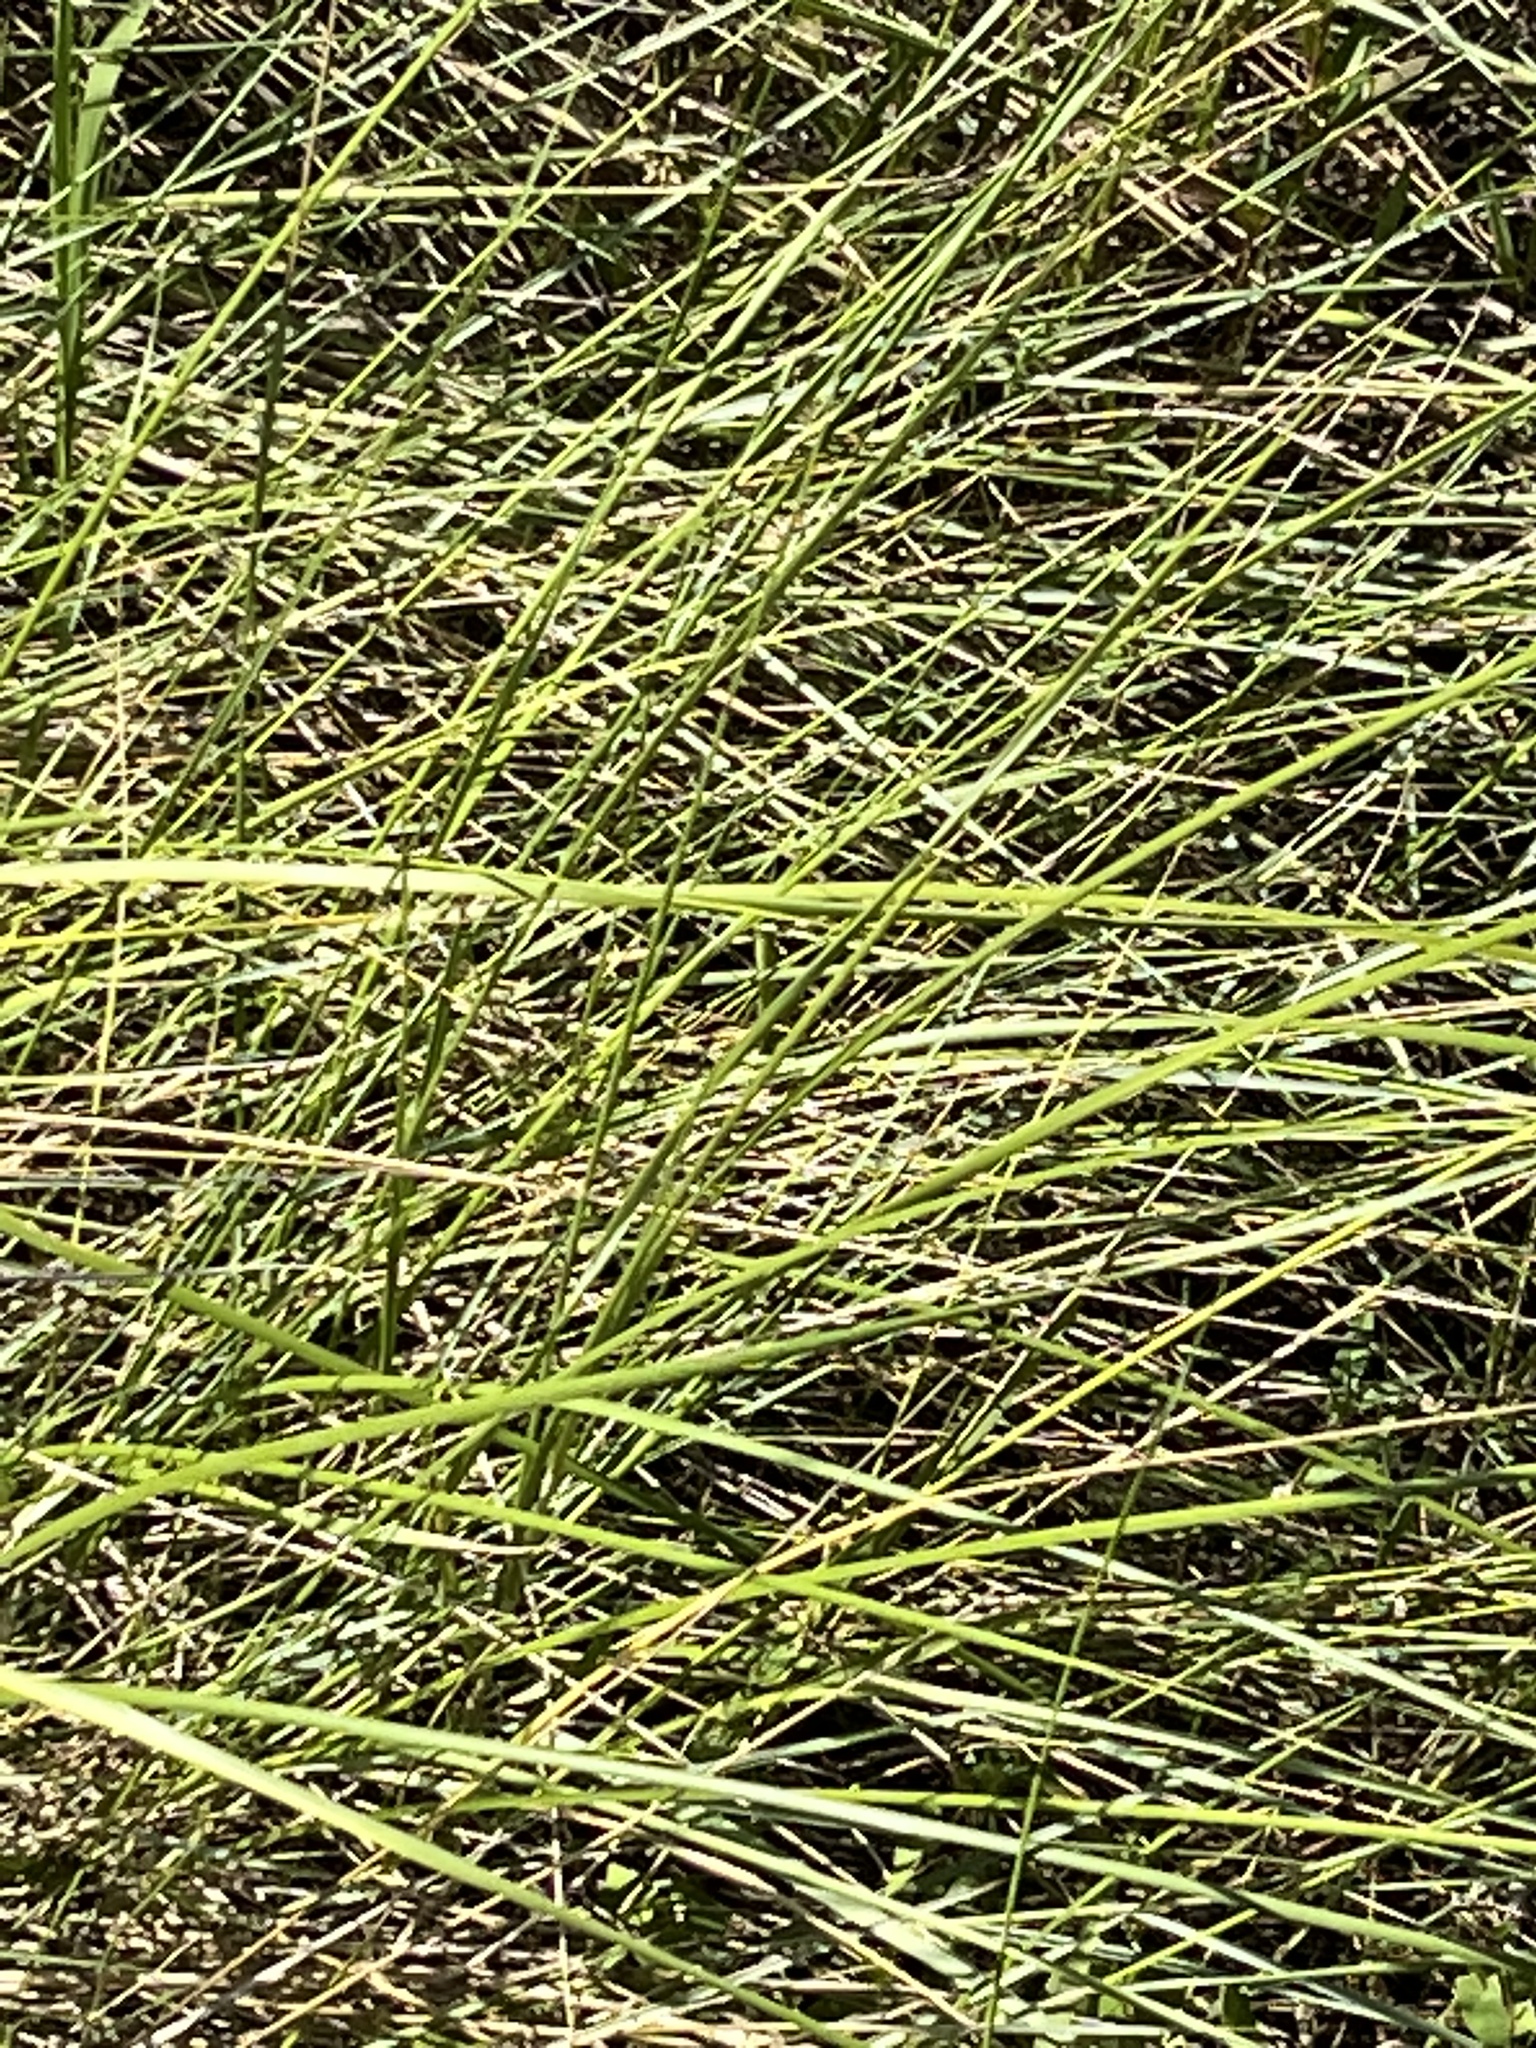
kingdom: Plantae
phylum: Tracheophyta
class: Liliopsida
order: Poales
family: Poaceae
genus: Sporobolus
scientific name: Sporobolus pumilus
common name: Highwater grass
